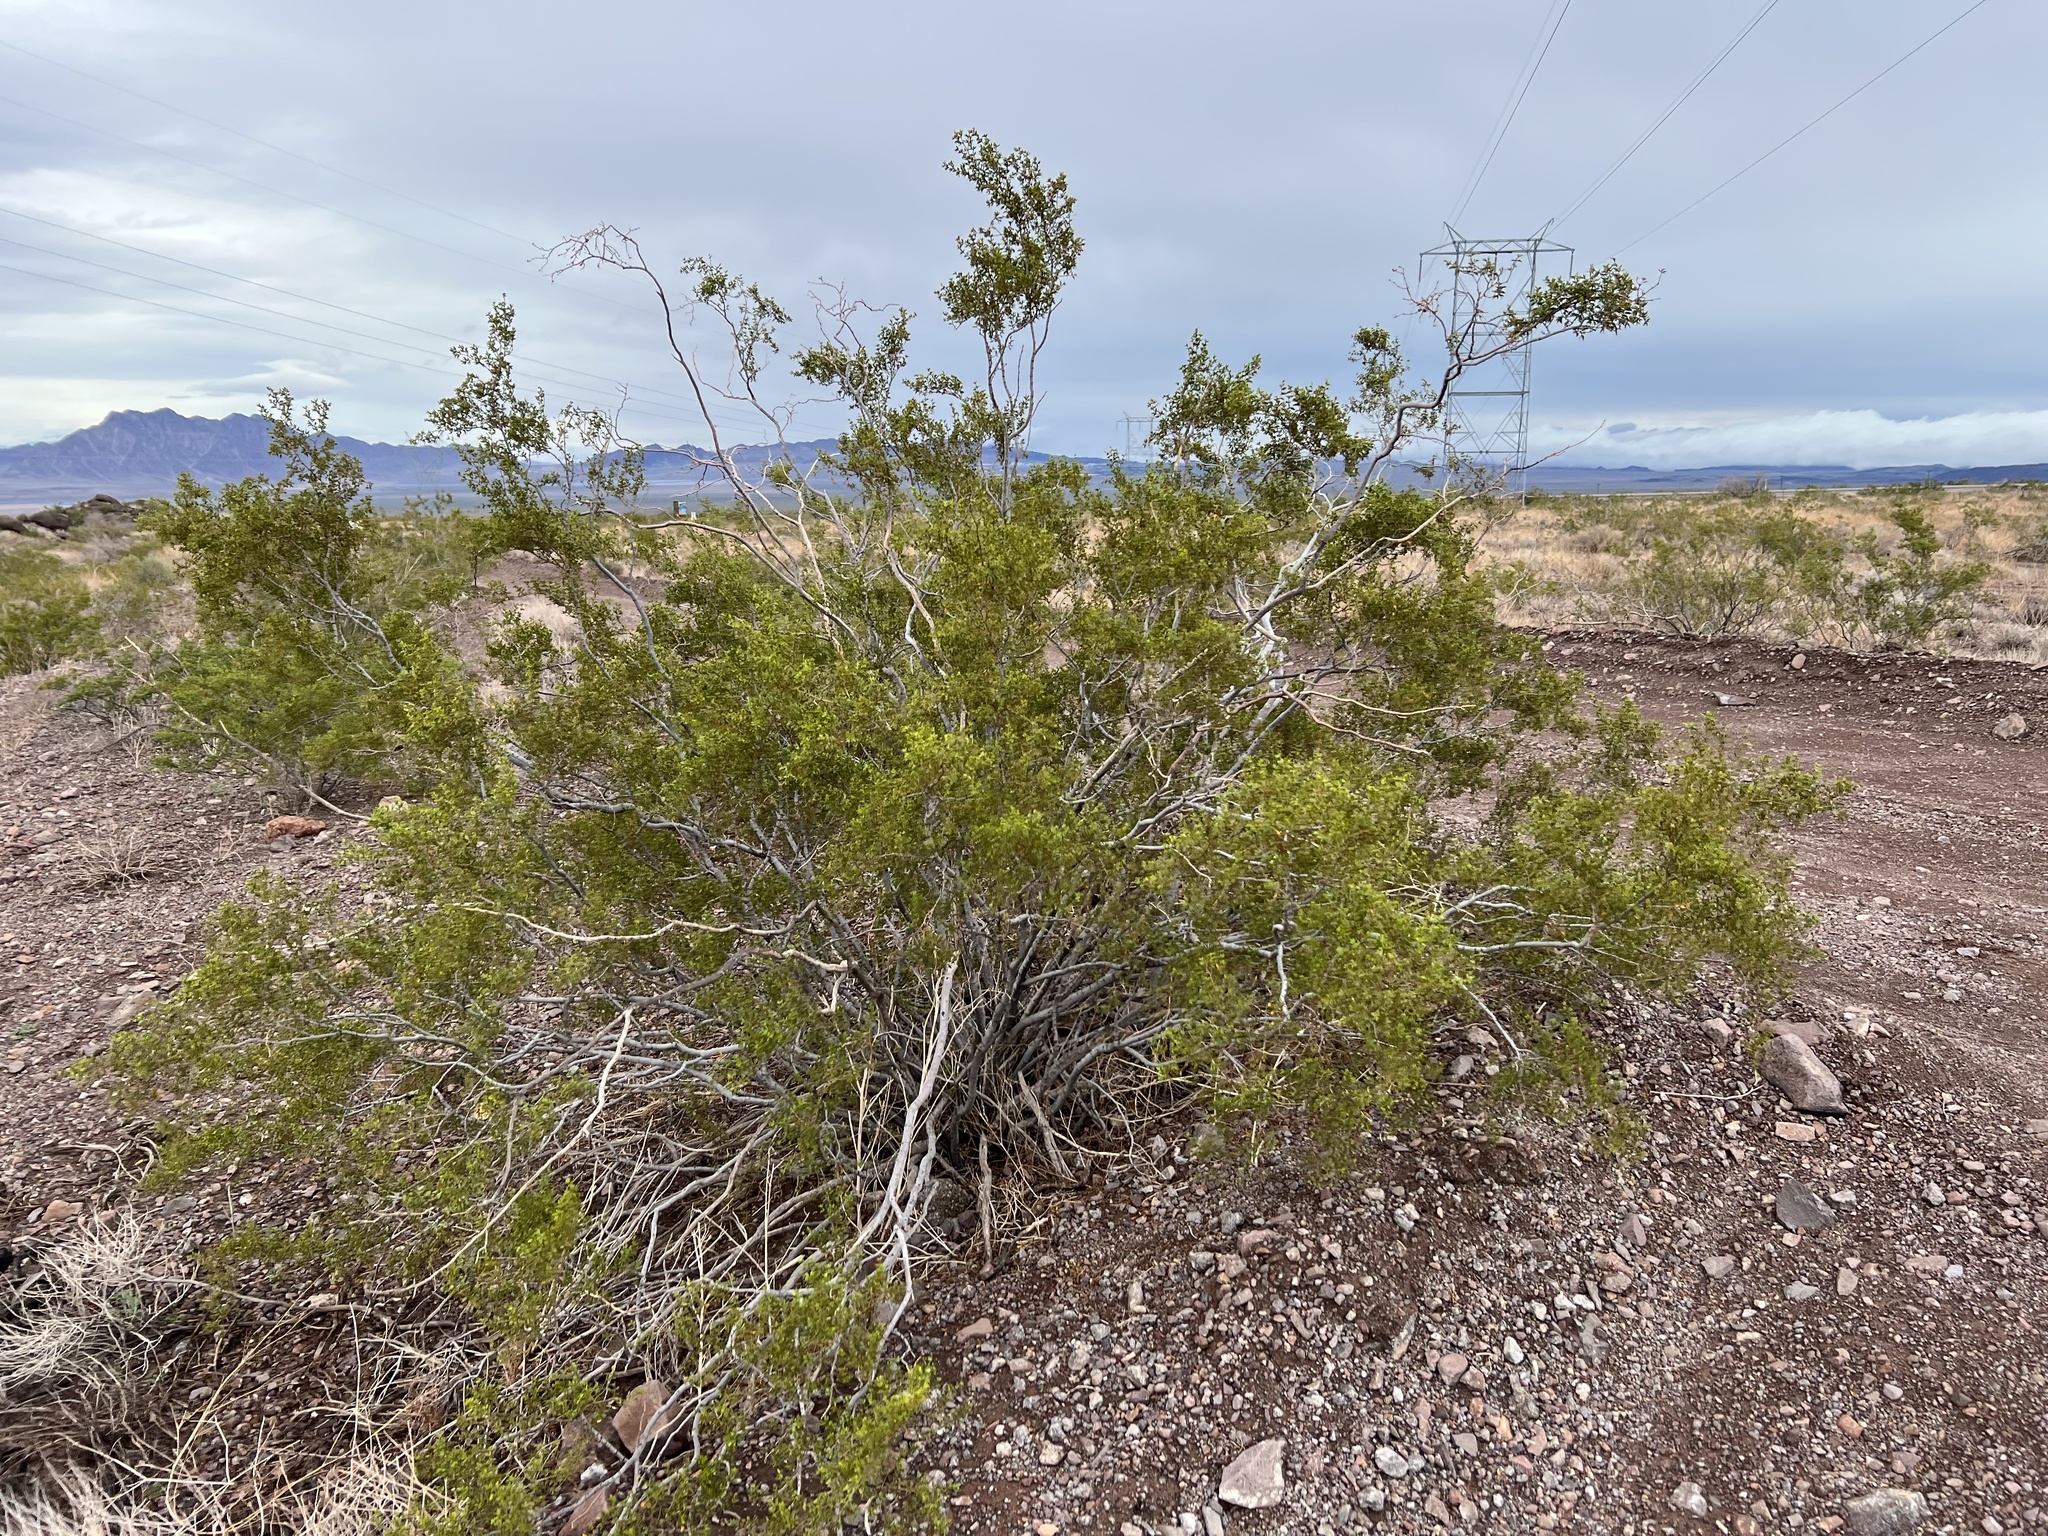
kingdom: Plantae
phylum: Tracheophyta
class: Magnoliopsida
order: Zygophyllales
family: Zygophyllaceae
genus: Larrea
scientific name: Larrea tridentata
